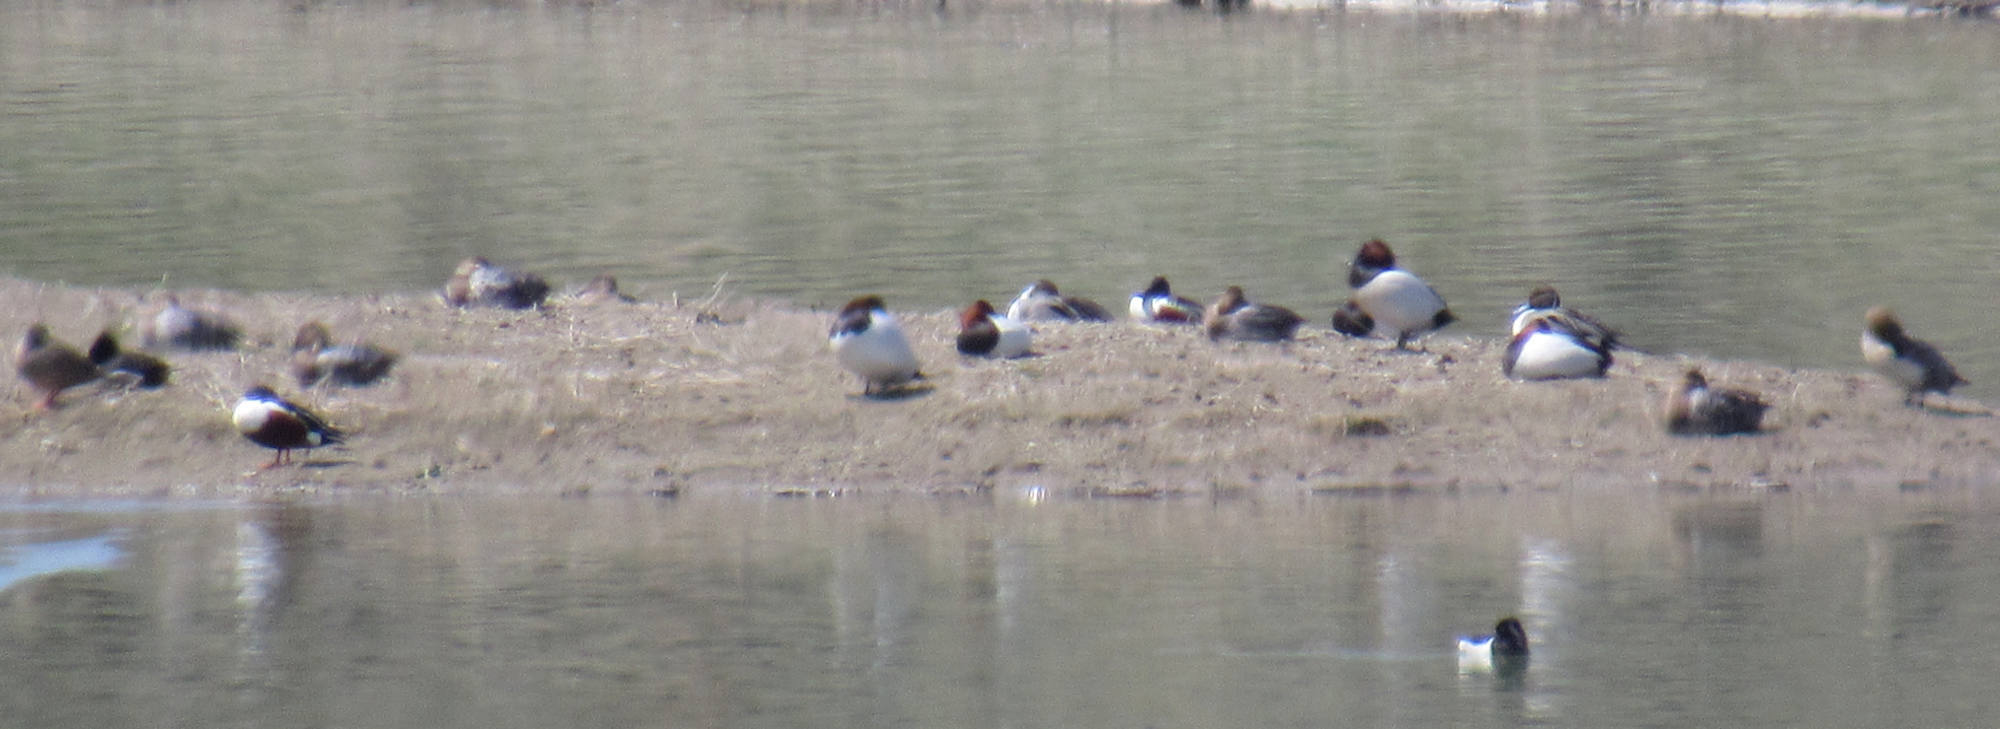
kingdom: Animalia
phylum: Chordata
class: Aves
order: Anseriformes
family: Anatidae
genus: Spatula
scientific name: Spatula clypeata
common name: Northern shoveler
